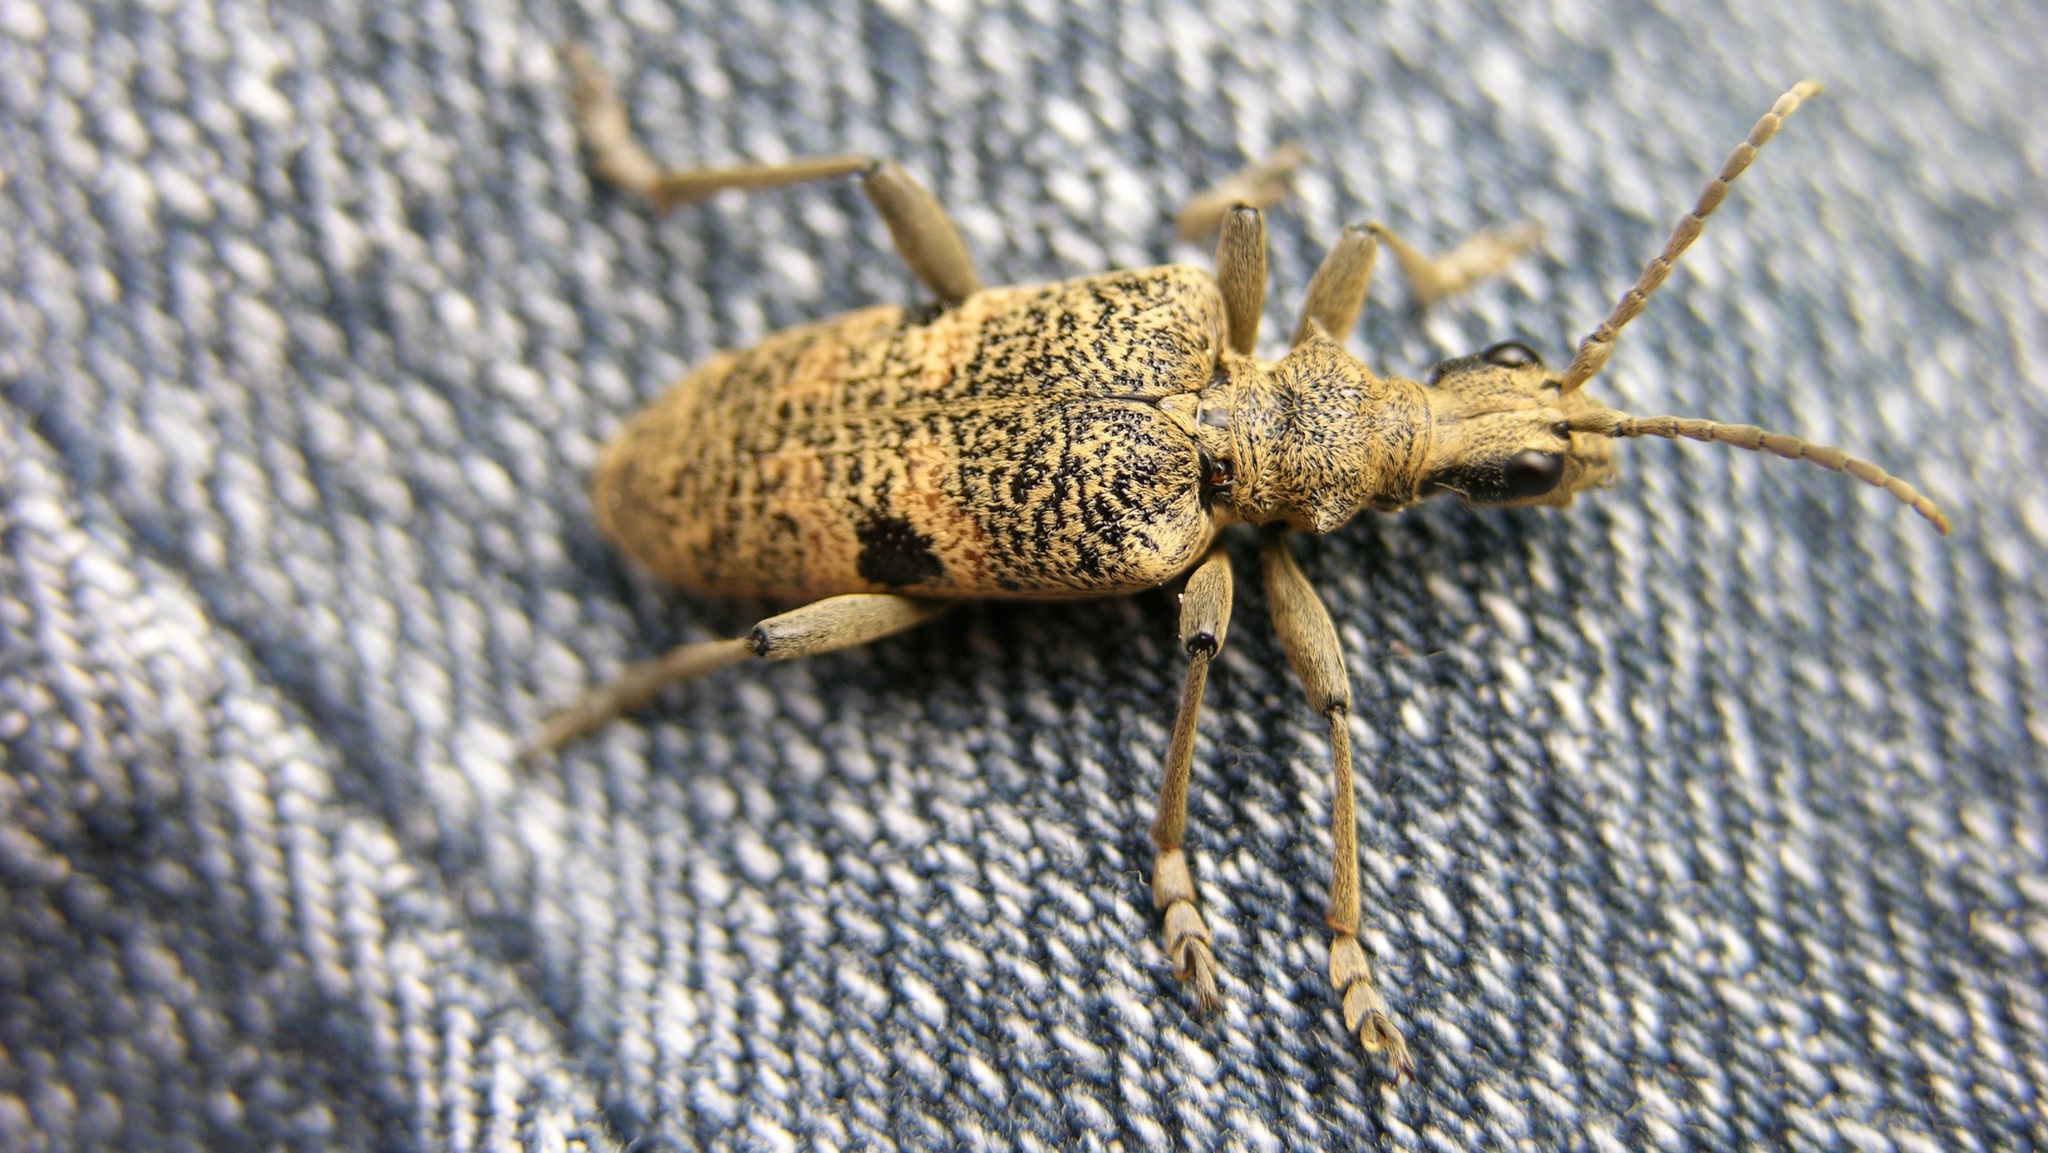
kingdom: Animalia
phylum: Arthropoda
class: Insecta
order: Coleoptera
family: Cerambycidae
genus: Rhagium
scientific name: Rhagium mordax
